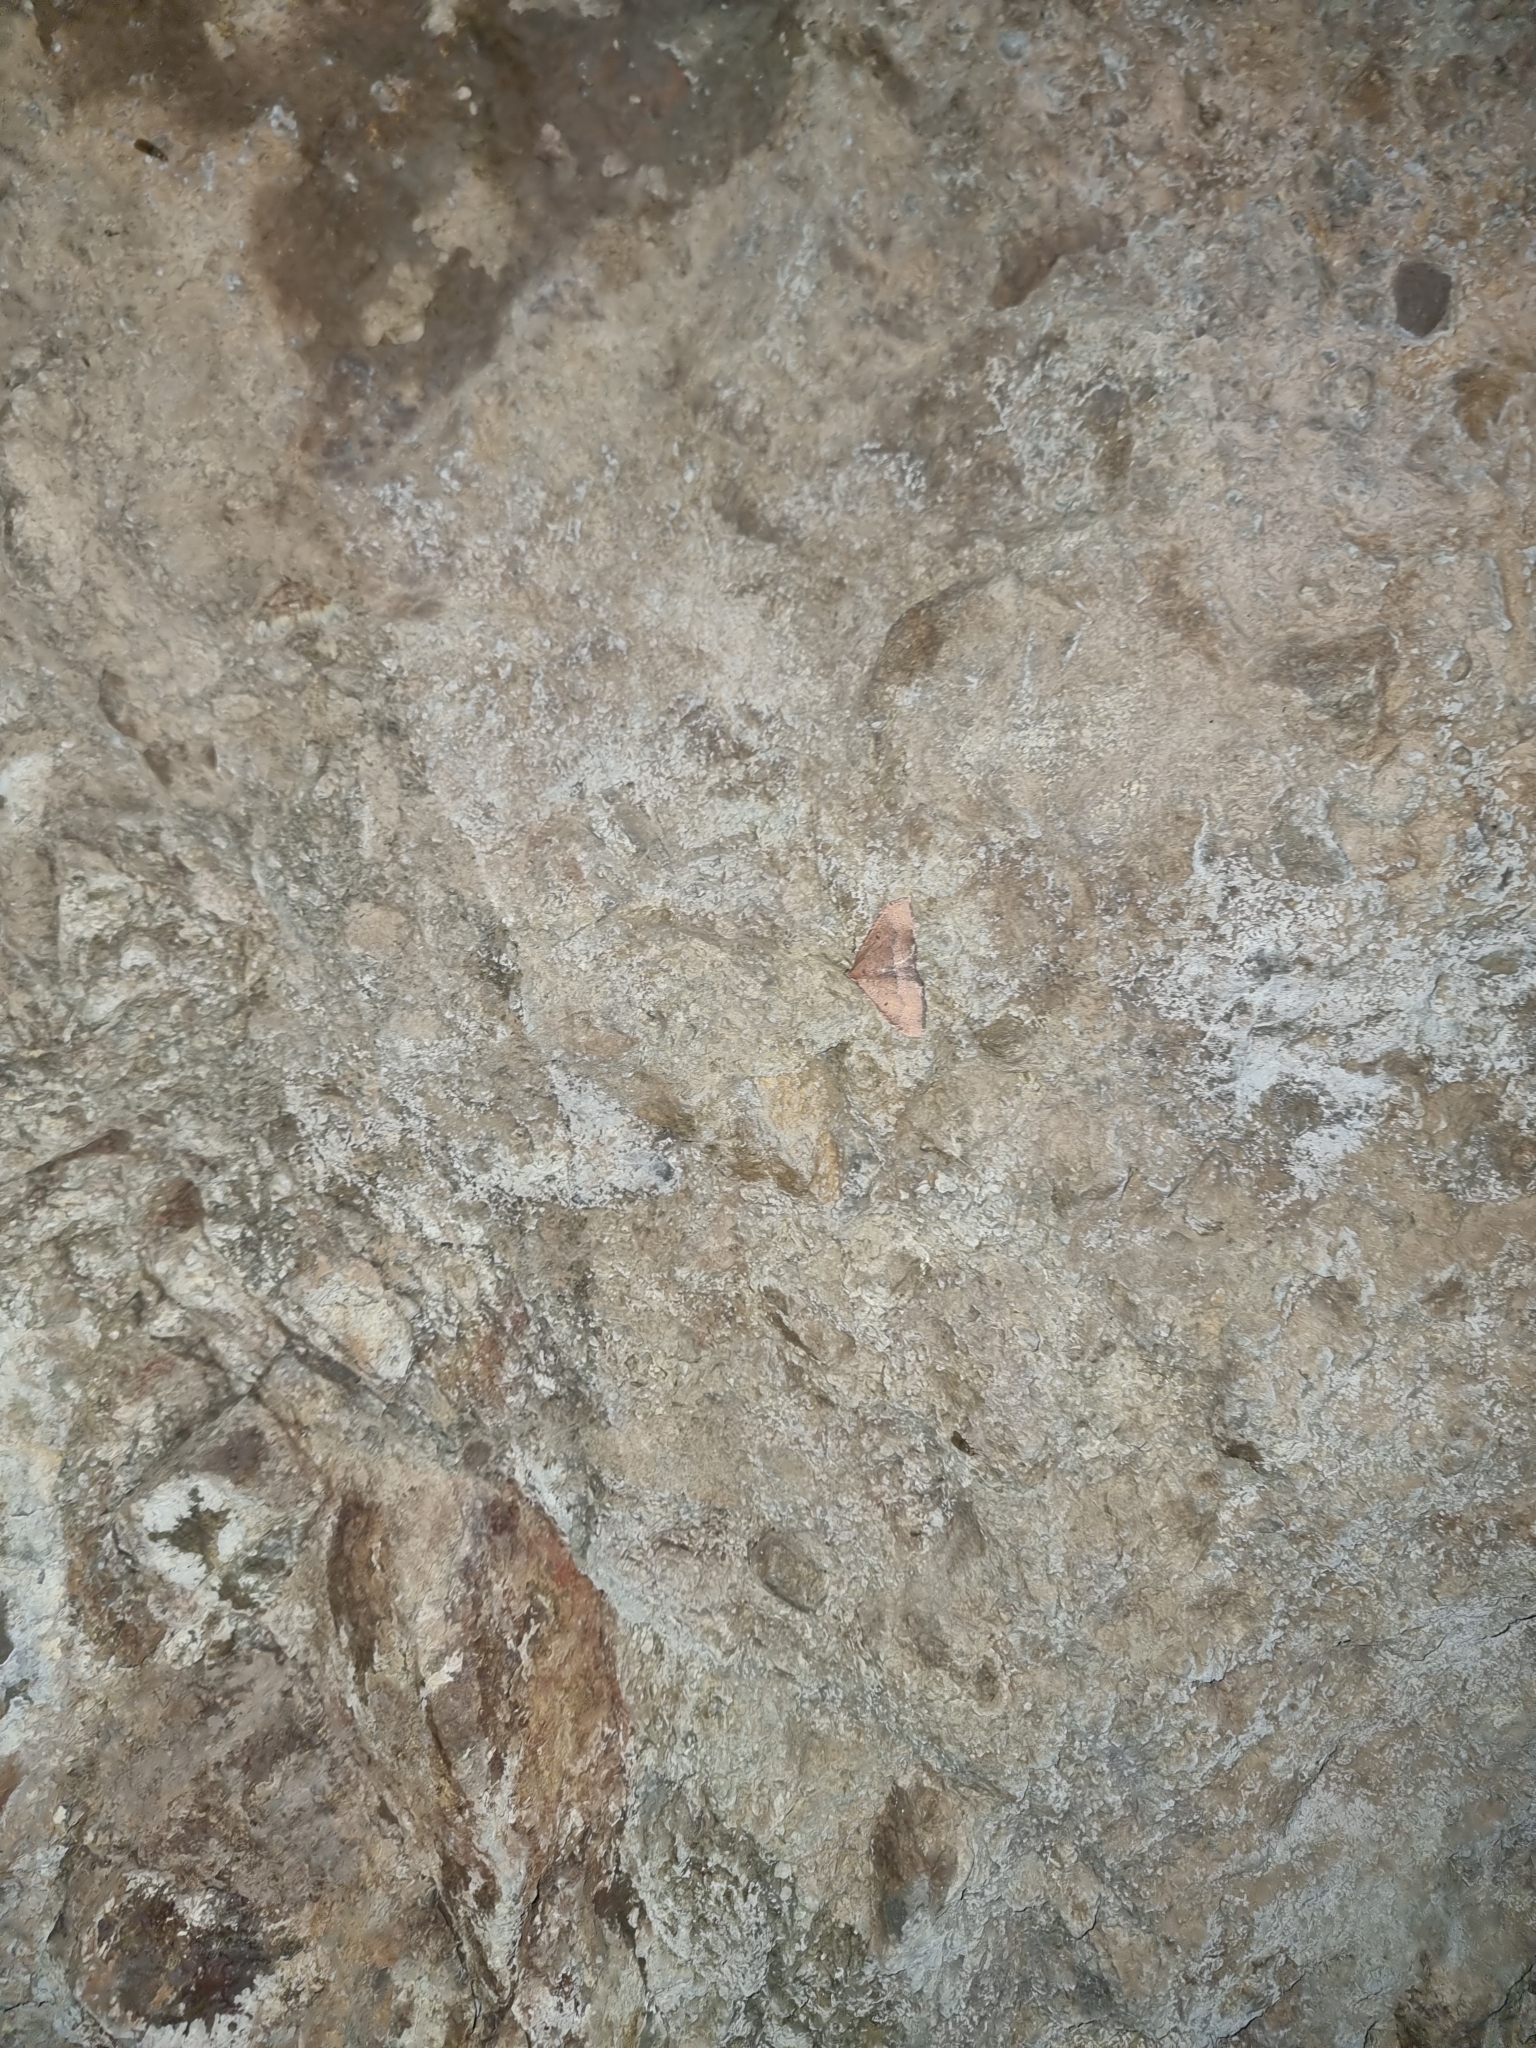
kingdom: Animalia
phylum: Arthropoda
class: Insecta
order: Lepidoptera
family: Geometridae
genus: Herbulotina
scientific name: Herbulotina maderae
